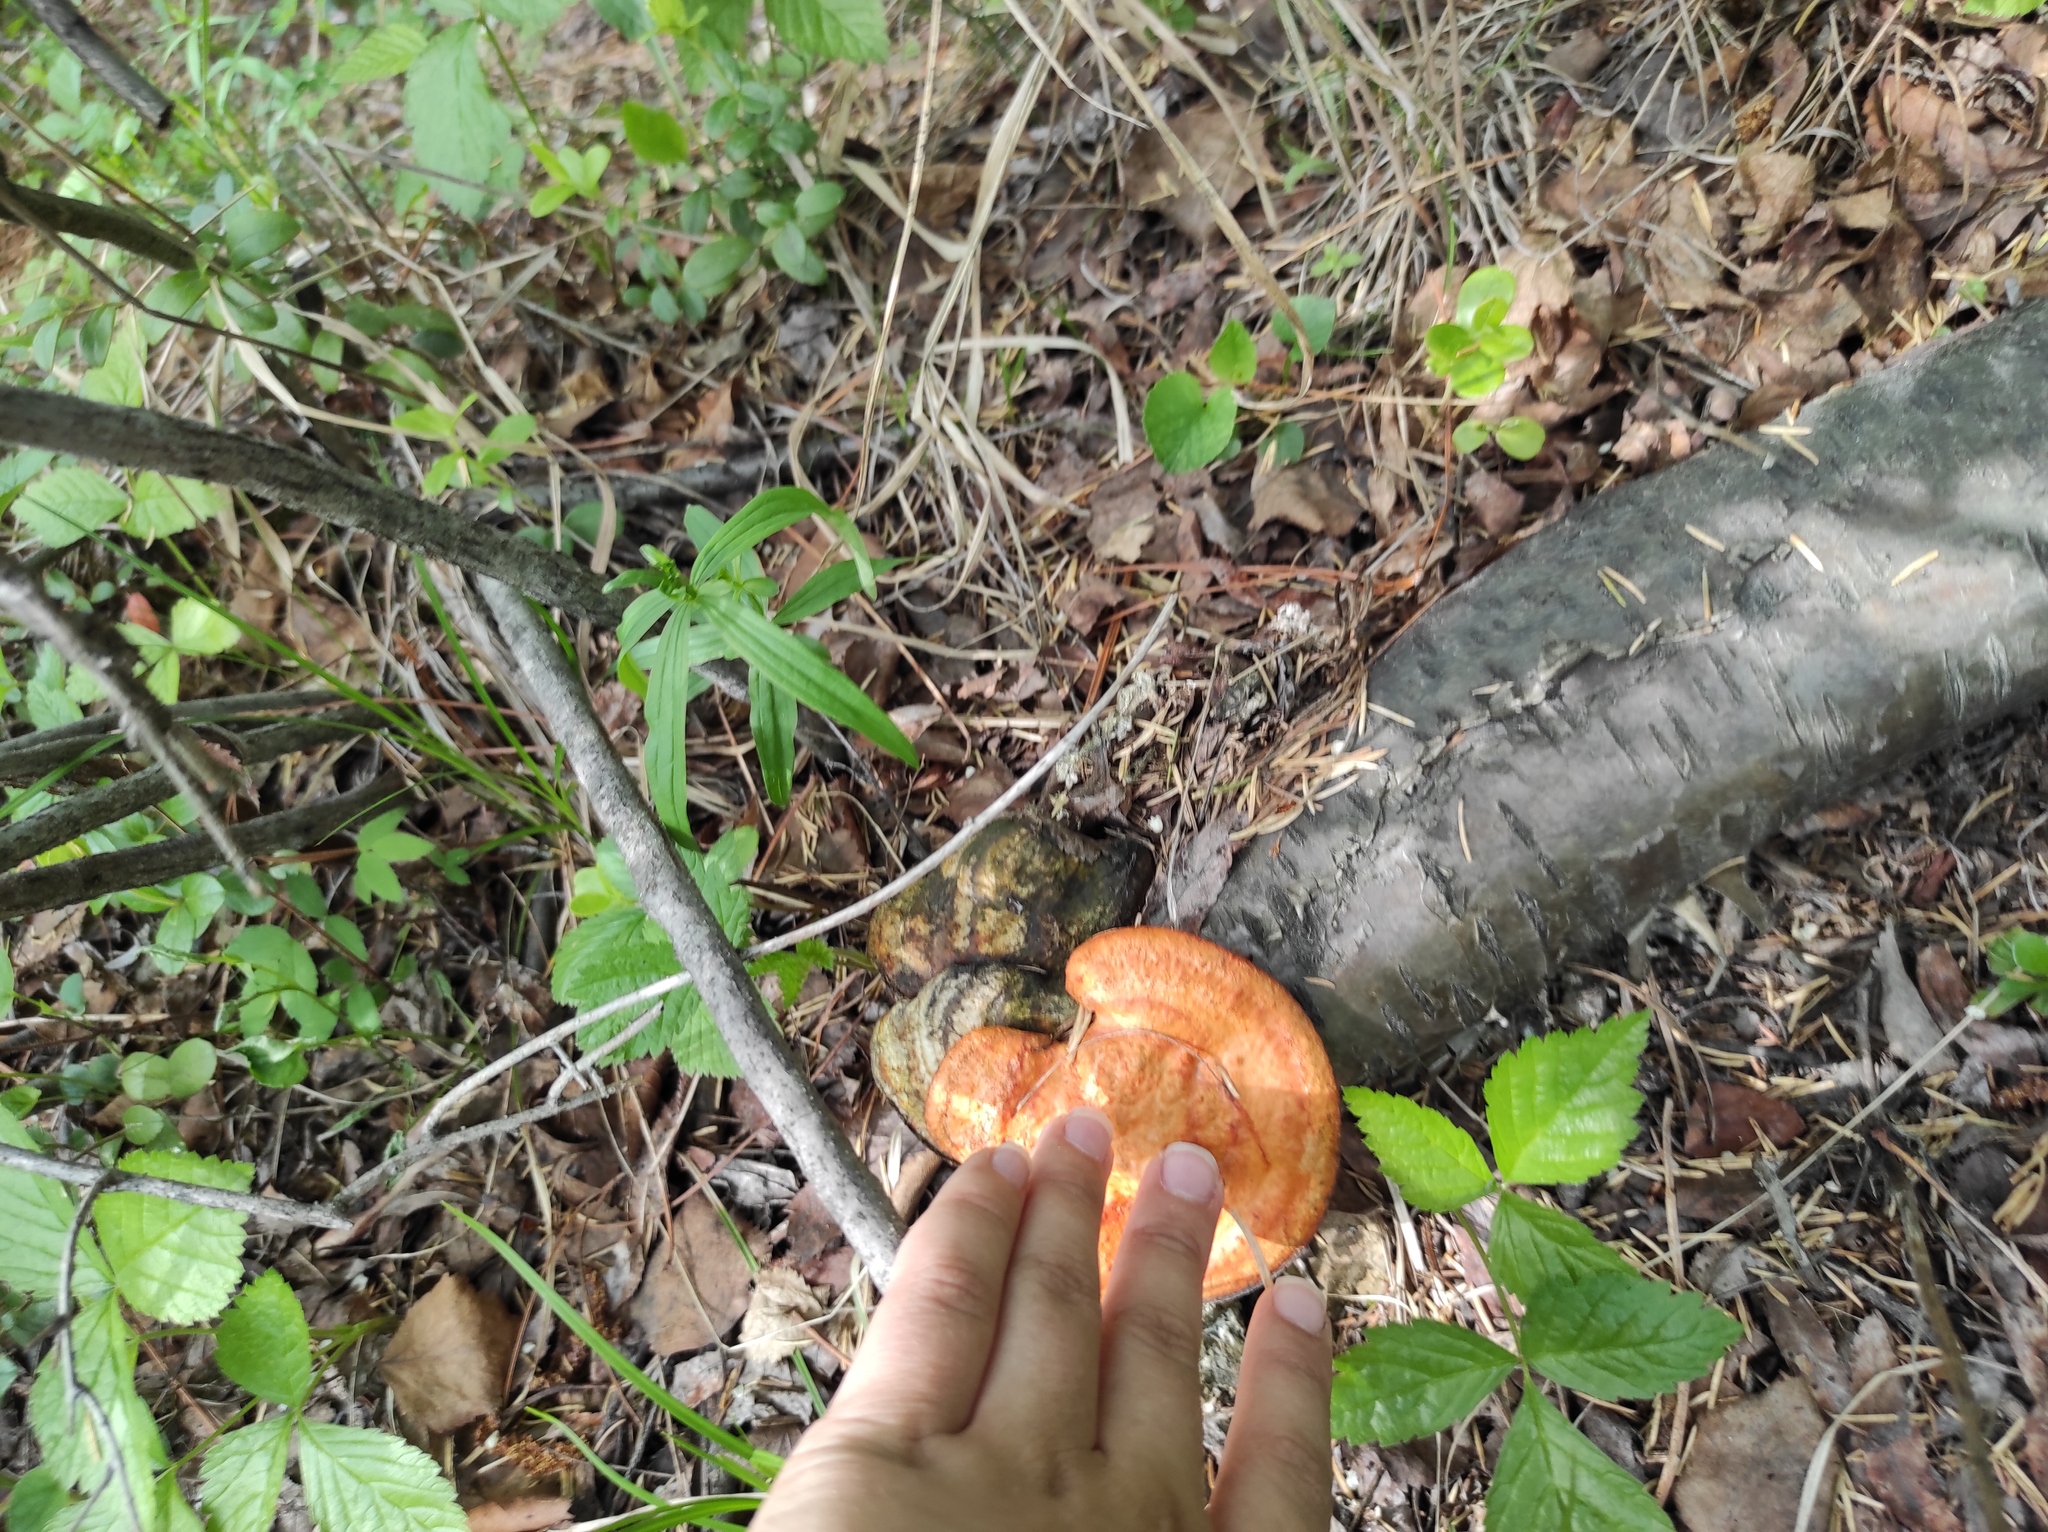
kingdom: Plantae
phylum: Tracheophyta
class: Magnoliopsida
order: Rosales
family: Rosaceae
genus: Rubus
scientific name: Rubus saxatilis
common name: Stone bramble
